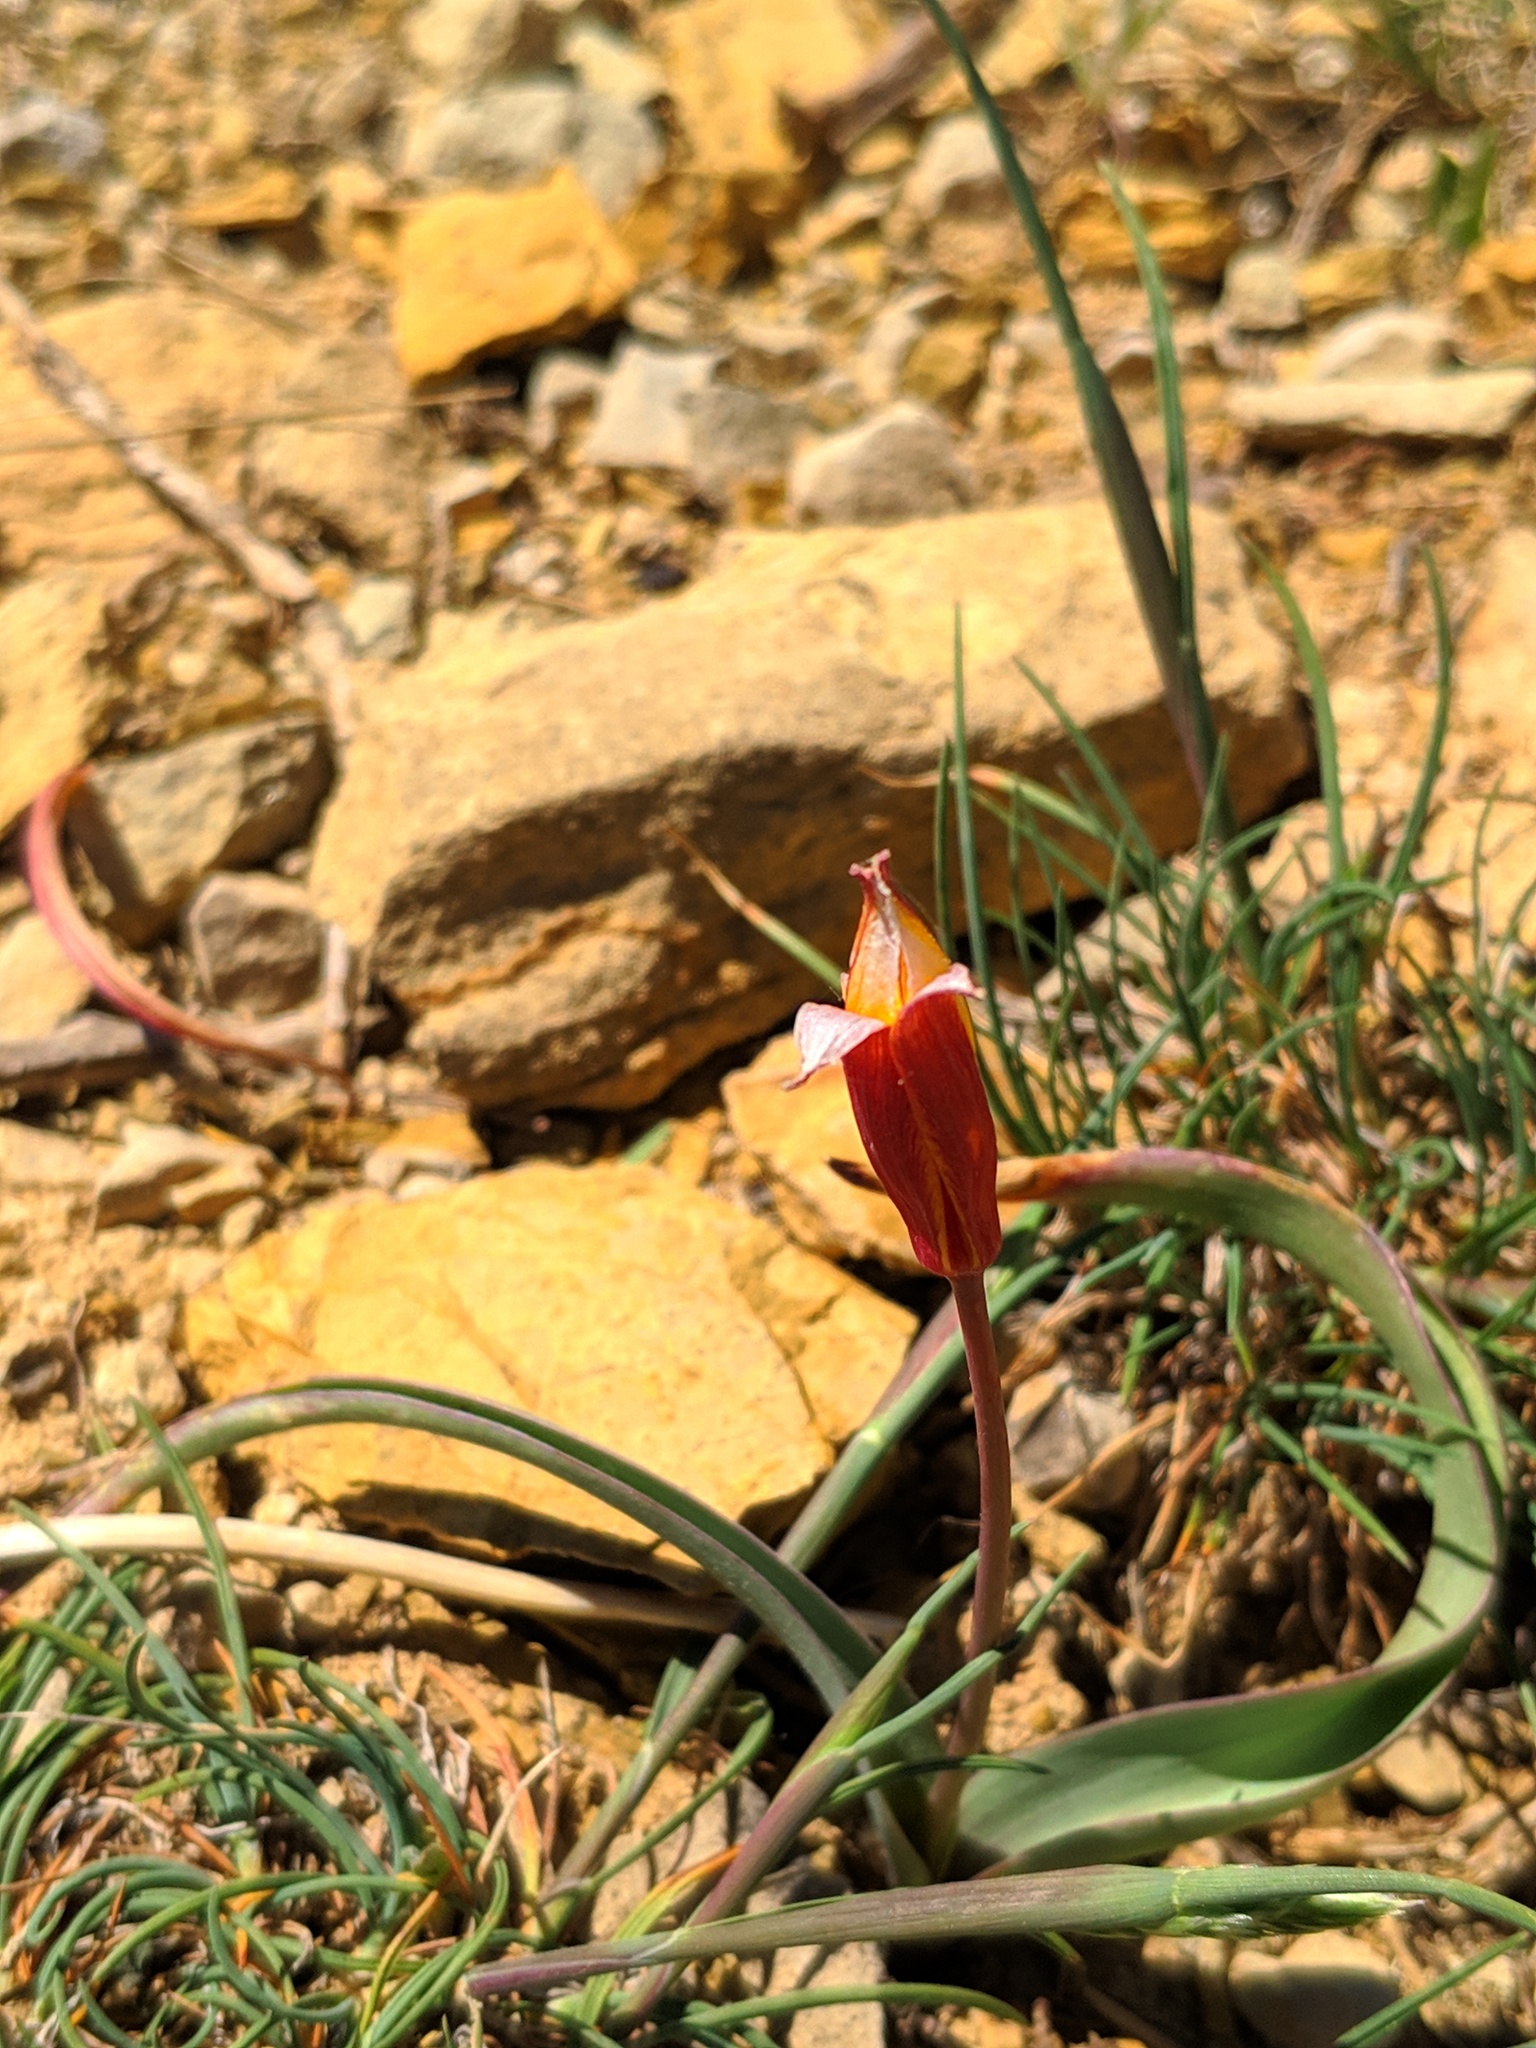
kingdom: Plantae
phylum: Tracheophyta
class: Liliopsida
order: Liliales
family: Liliaceae
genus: Tulipa
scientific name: Tulipa sylvestris
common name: Wild tulip
